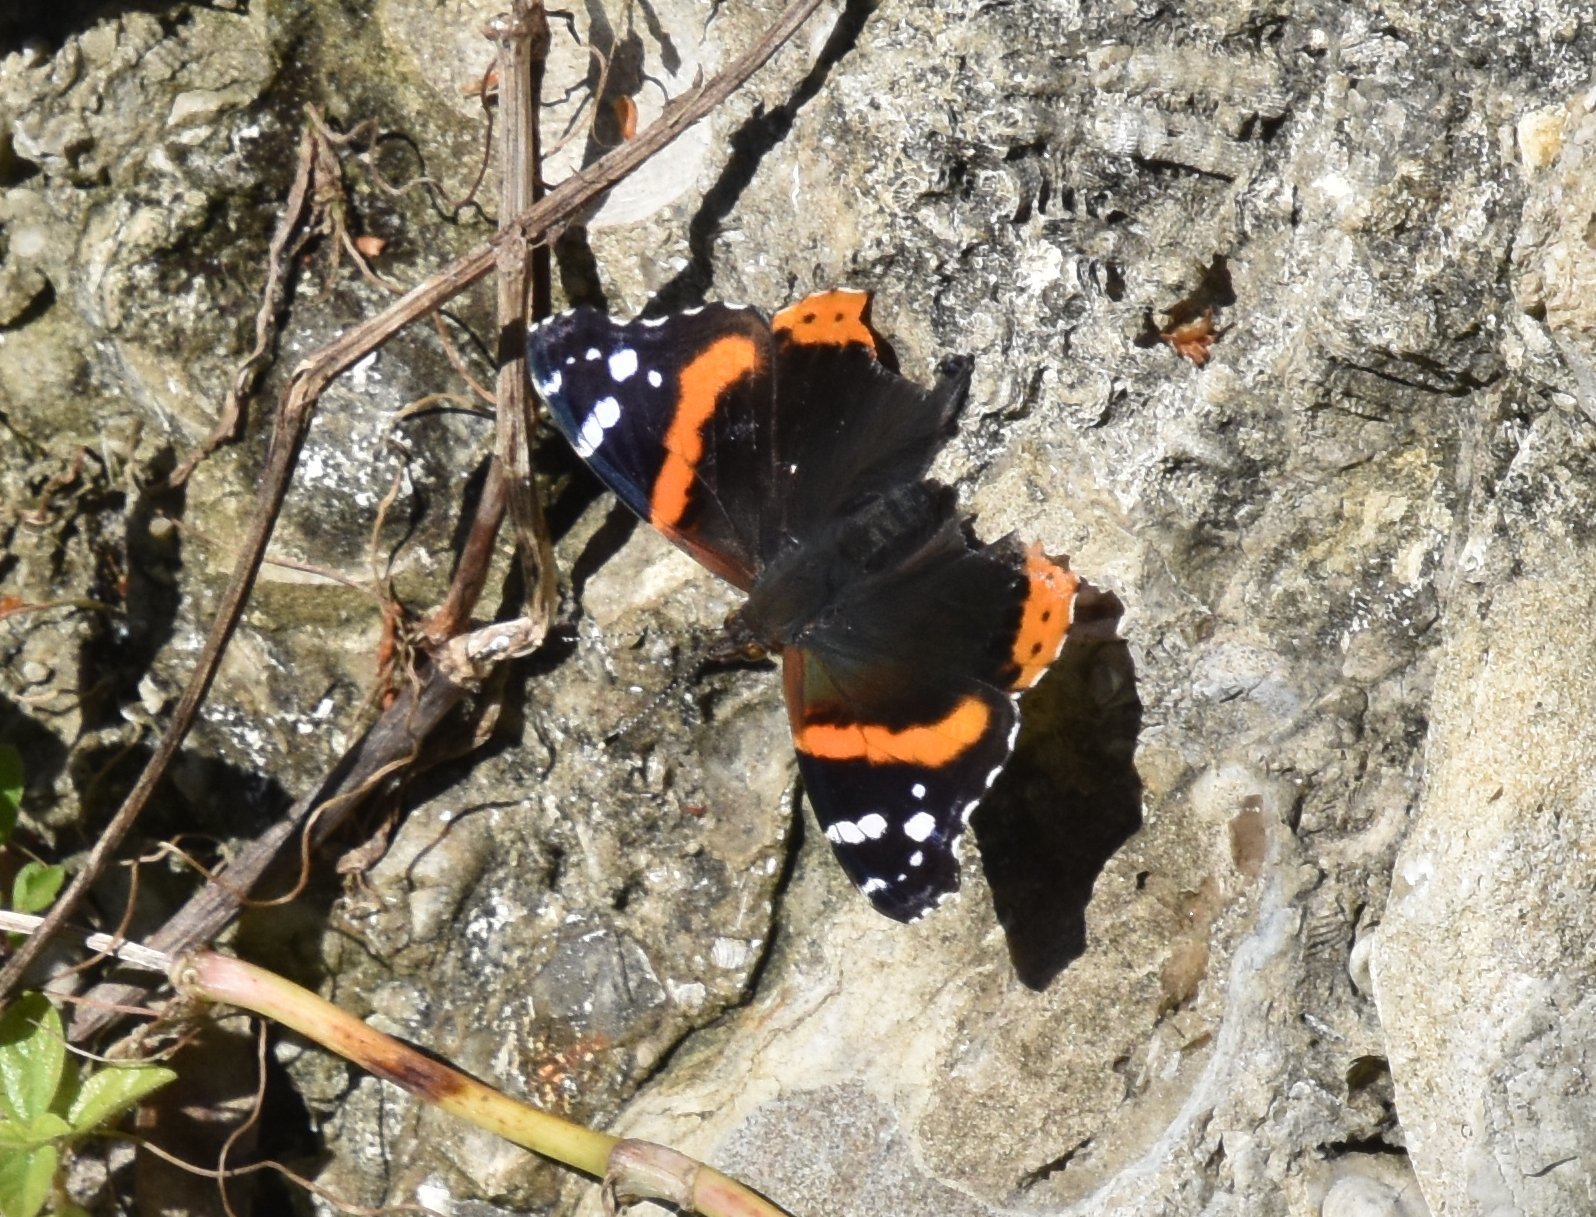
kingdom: Animalia
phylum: Arthropoda
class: Insecta
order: Lepidoptera
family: Nymphalidae
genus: Vanessa
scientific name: Vanessa atalanta
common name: Red admiral
